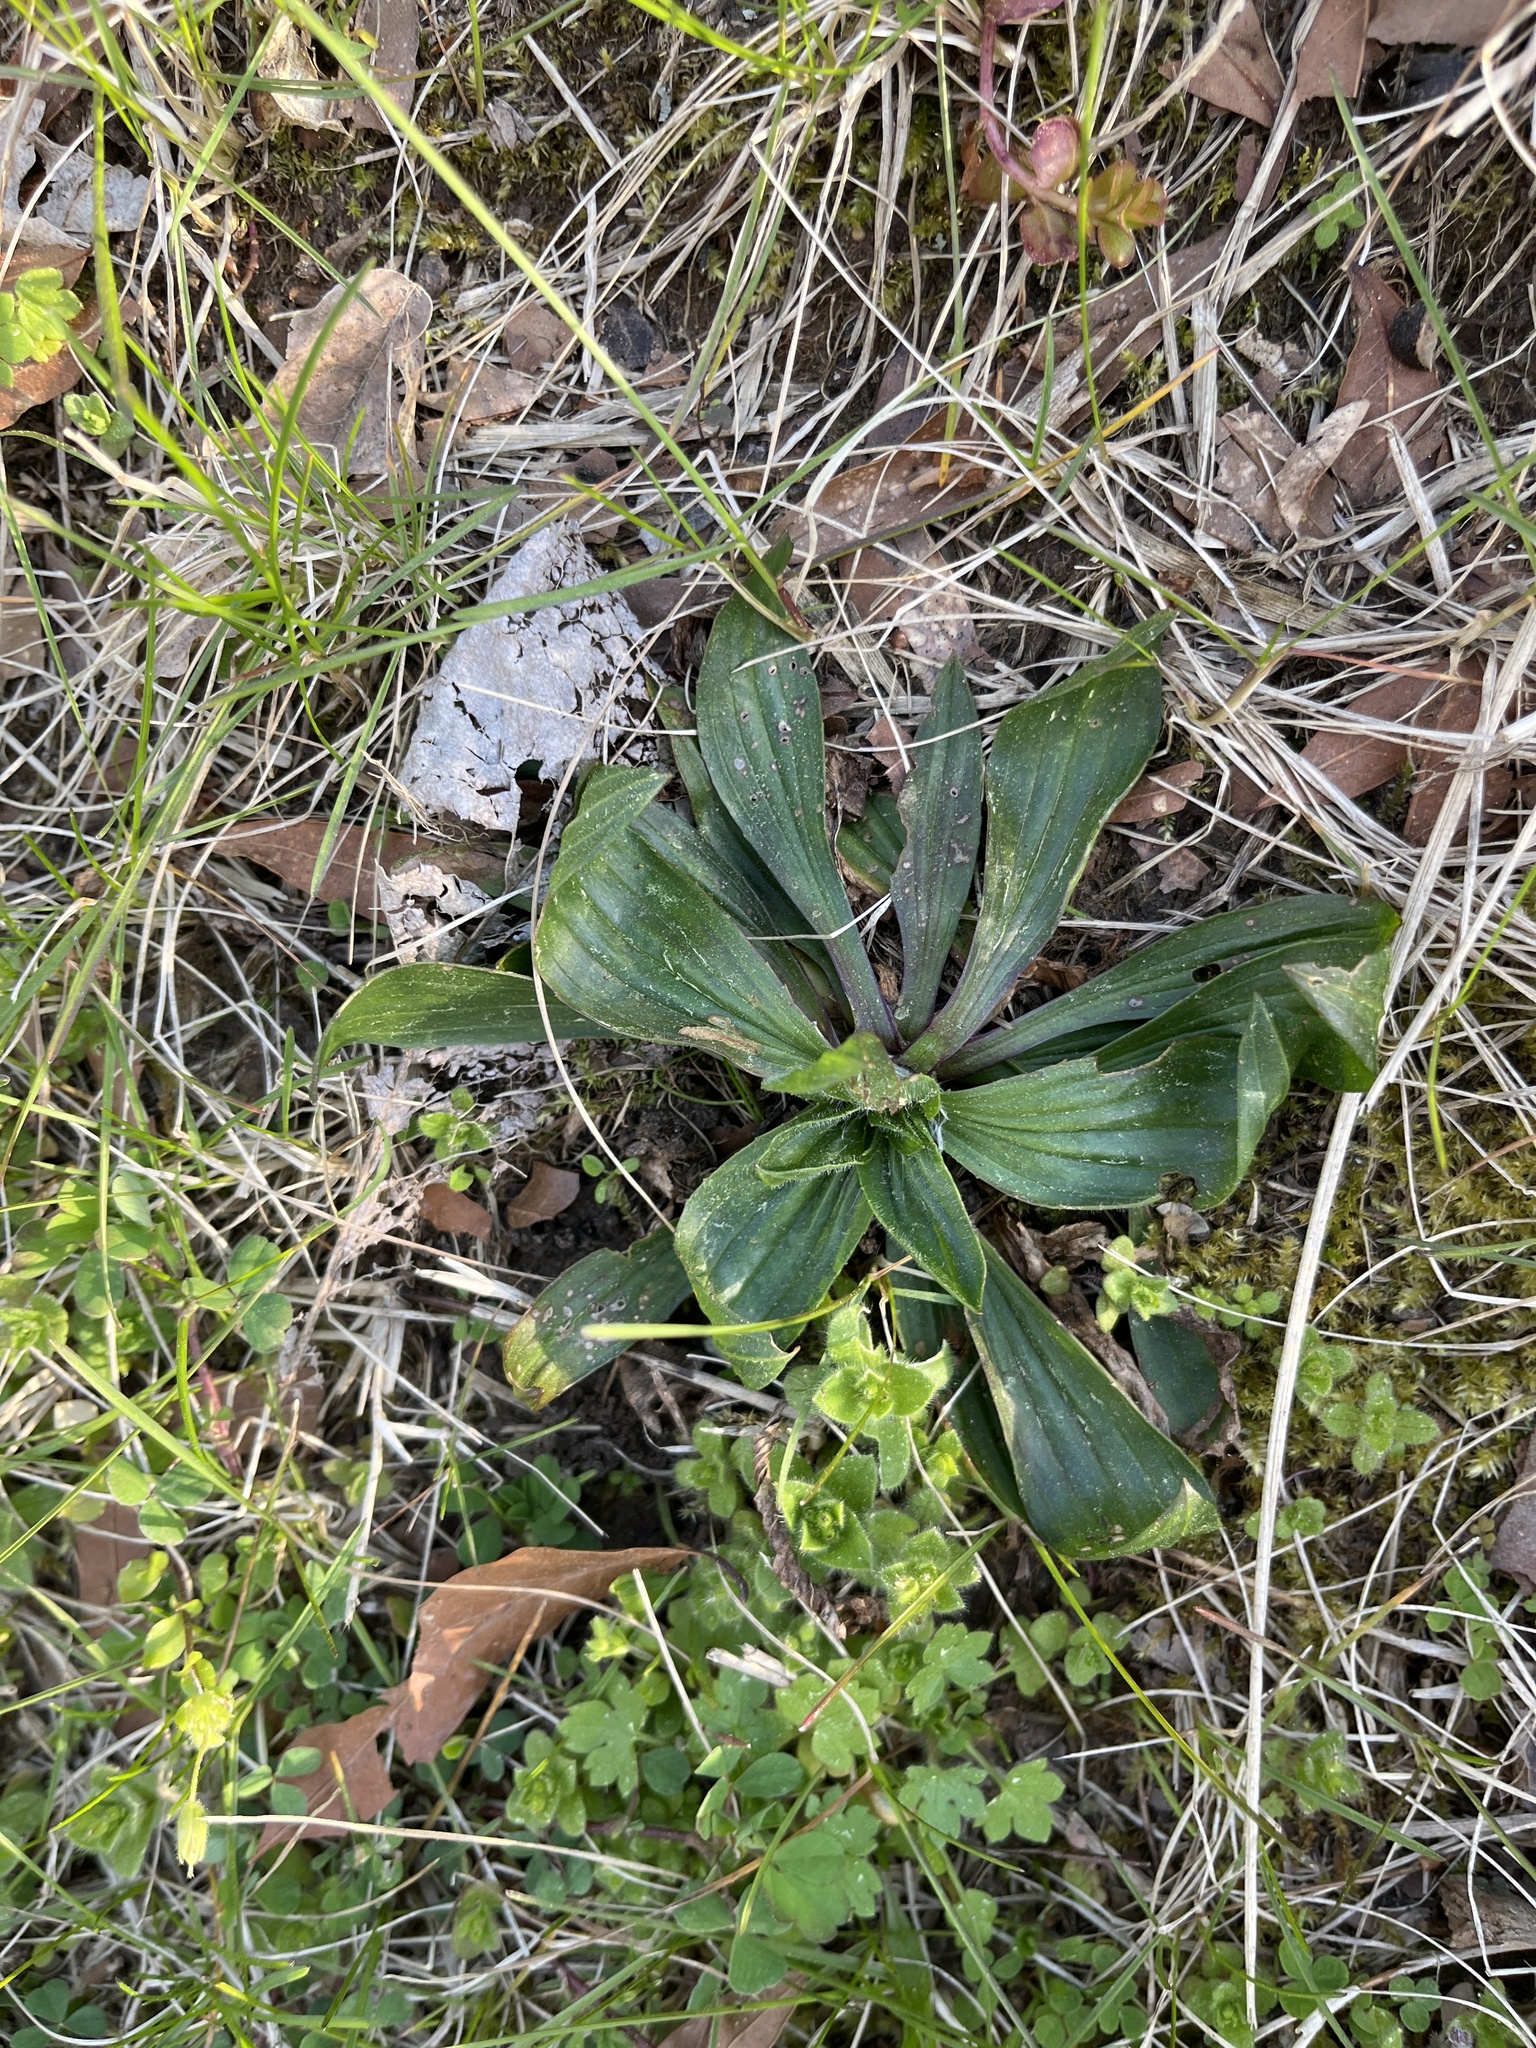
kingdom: Plantae
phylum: Tracheophyta
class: Magnoliopsida
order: Lamiales
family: Plantaginaceae
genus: Plantago
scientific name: Plantago lanceolata
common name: Ribwort plantain
